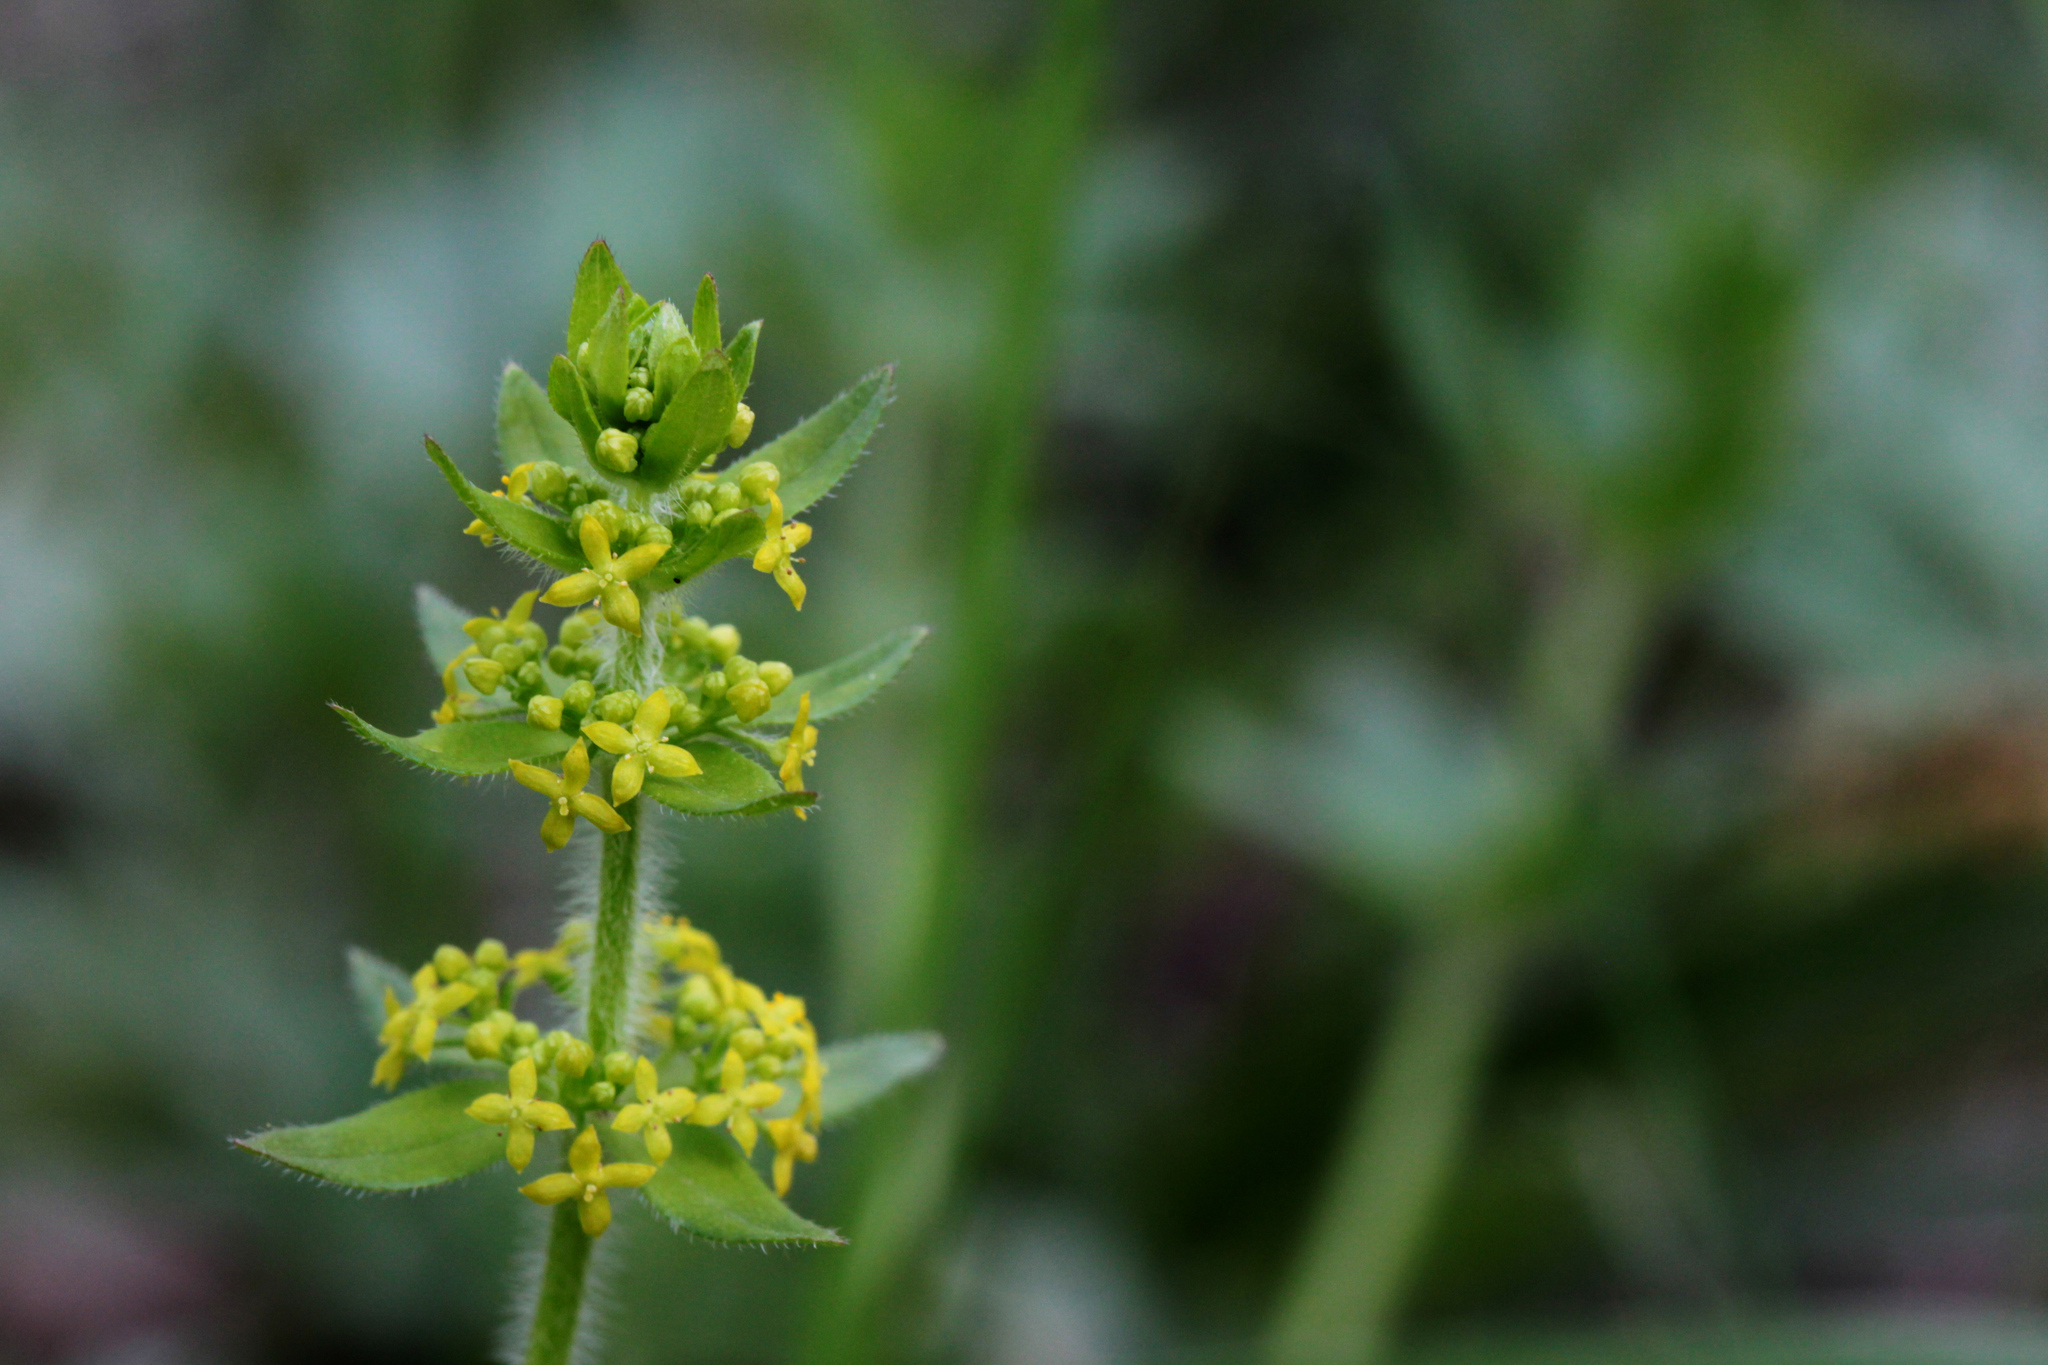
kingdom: Plantae
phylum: Tracheophyta
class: Magnoliopsida
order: Gentianales
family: Rubiaceae
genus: Cruciata
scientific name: Cruciata laevipes
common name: Crosswort
